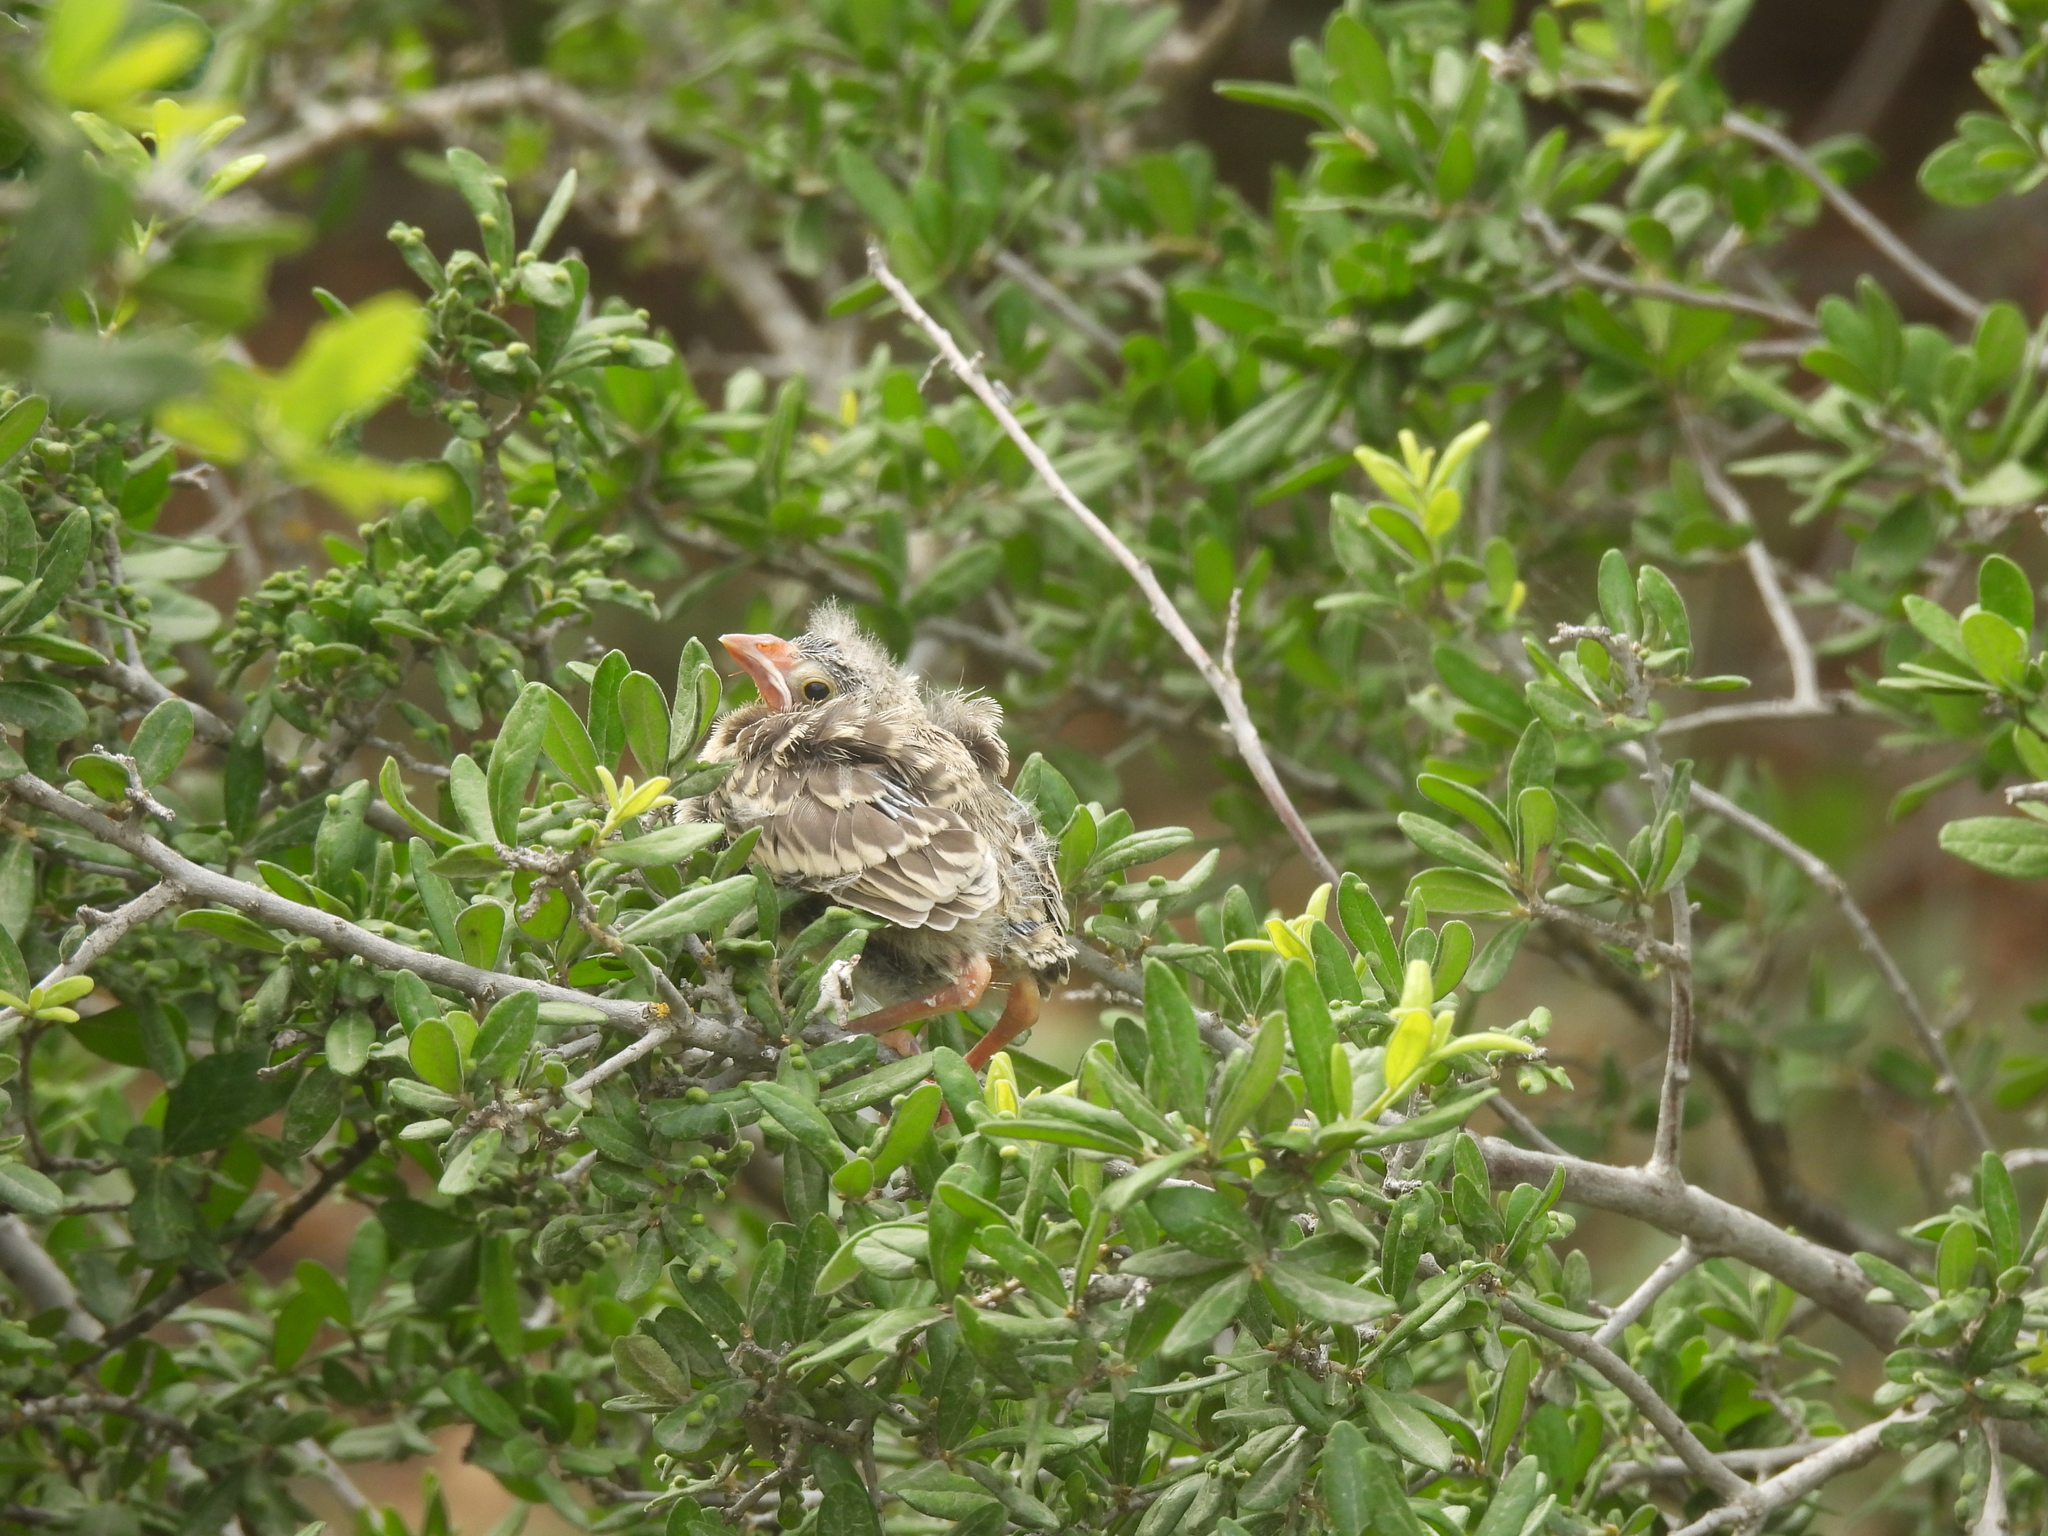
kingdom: Animalia
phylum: Chordata
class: Aves
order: Passeriformes
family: Icteridae
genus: Molothrus
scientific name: Molothrus ater
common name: Brown-headed cowbird
